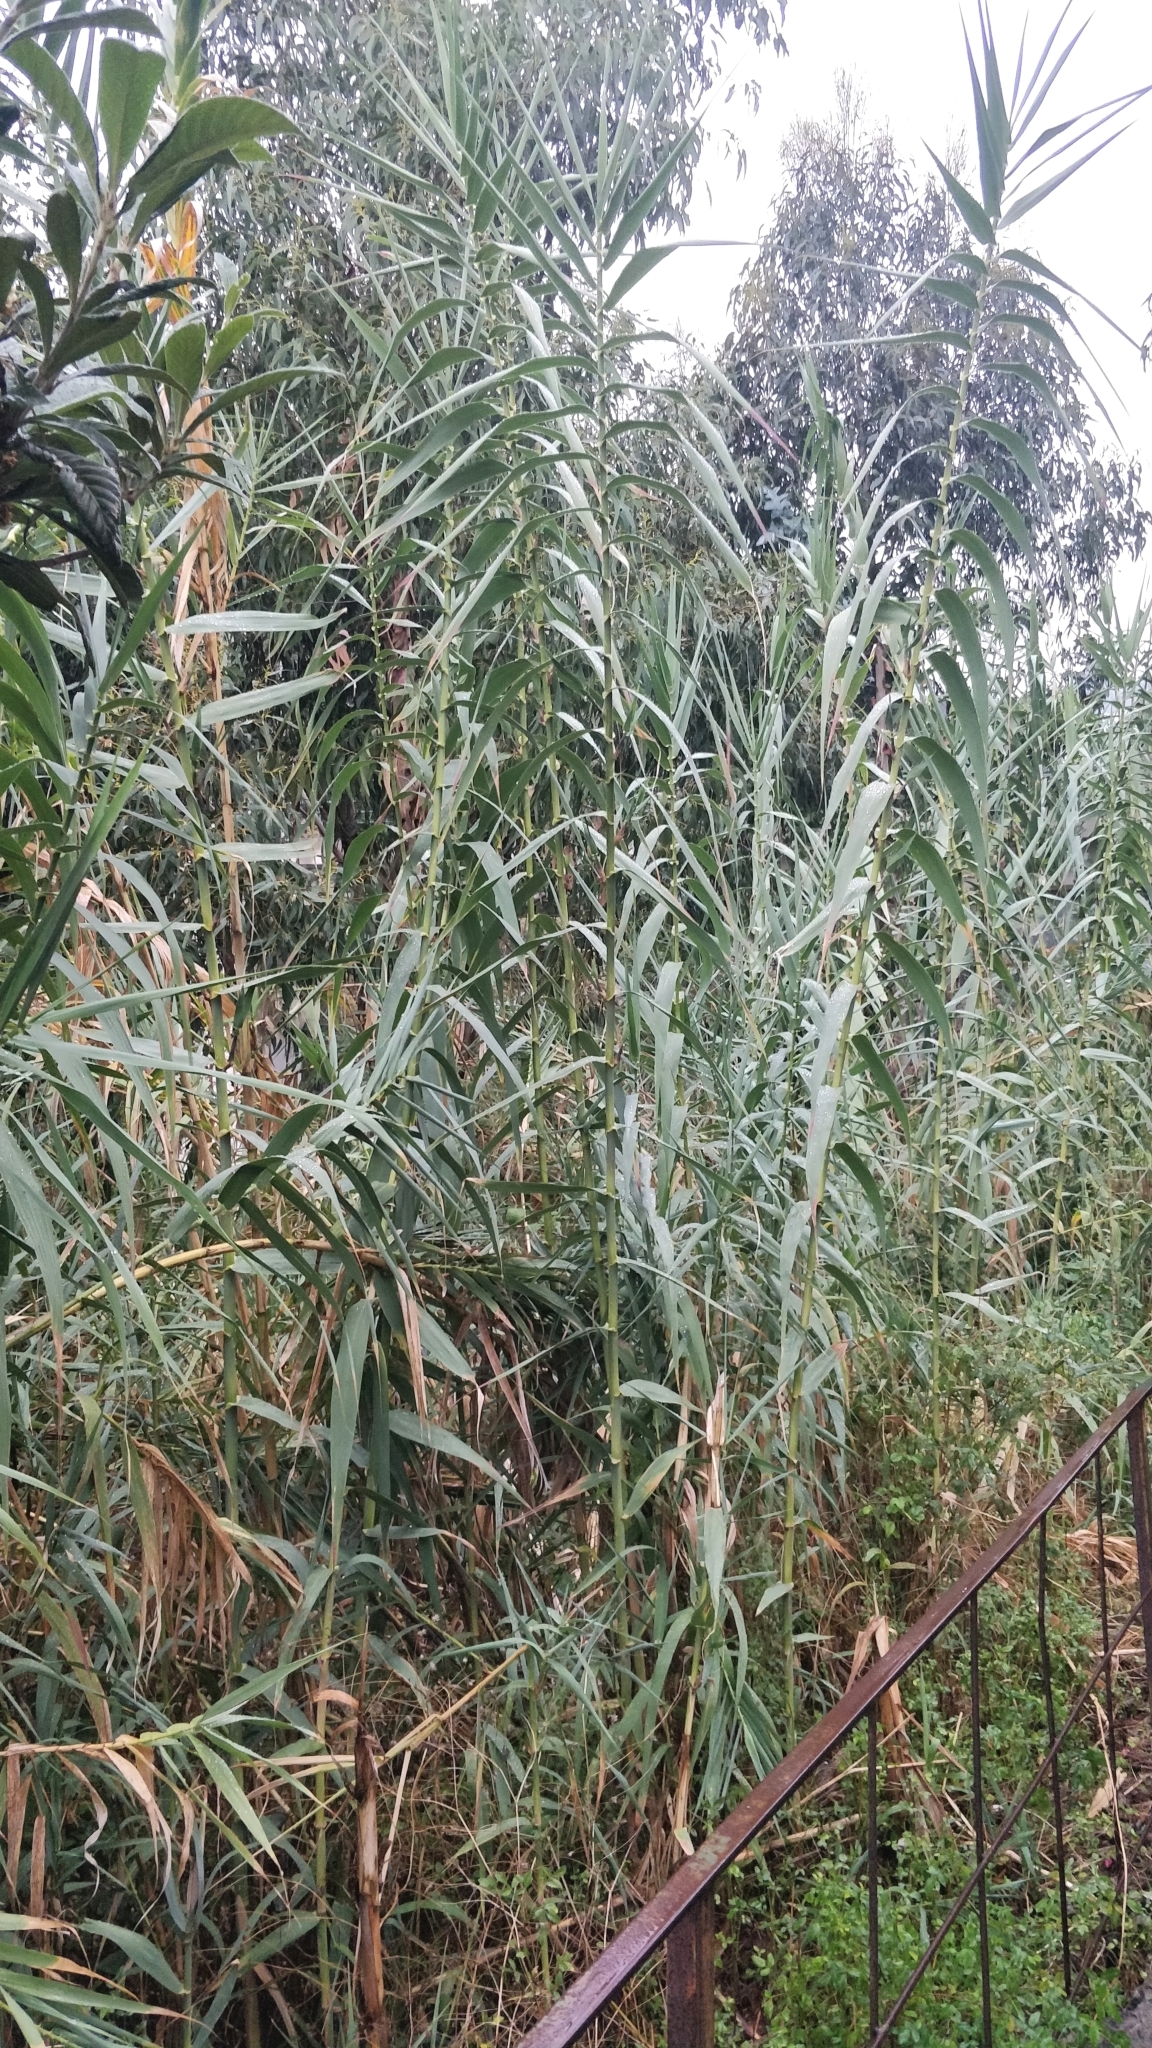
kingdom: Plantae
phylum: Tracheophyta
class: Liliopsida
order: Poales
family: Poaceae
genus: Arundo
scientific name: Arundo donax
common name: Giant reed
